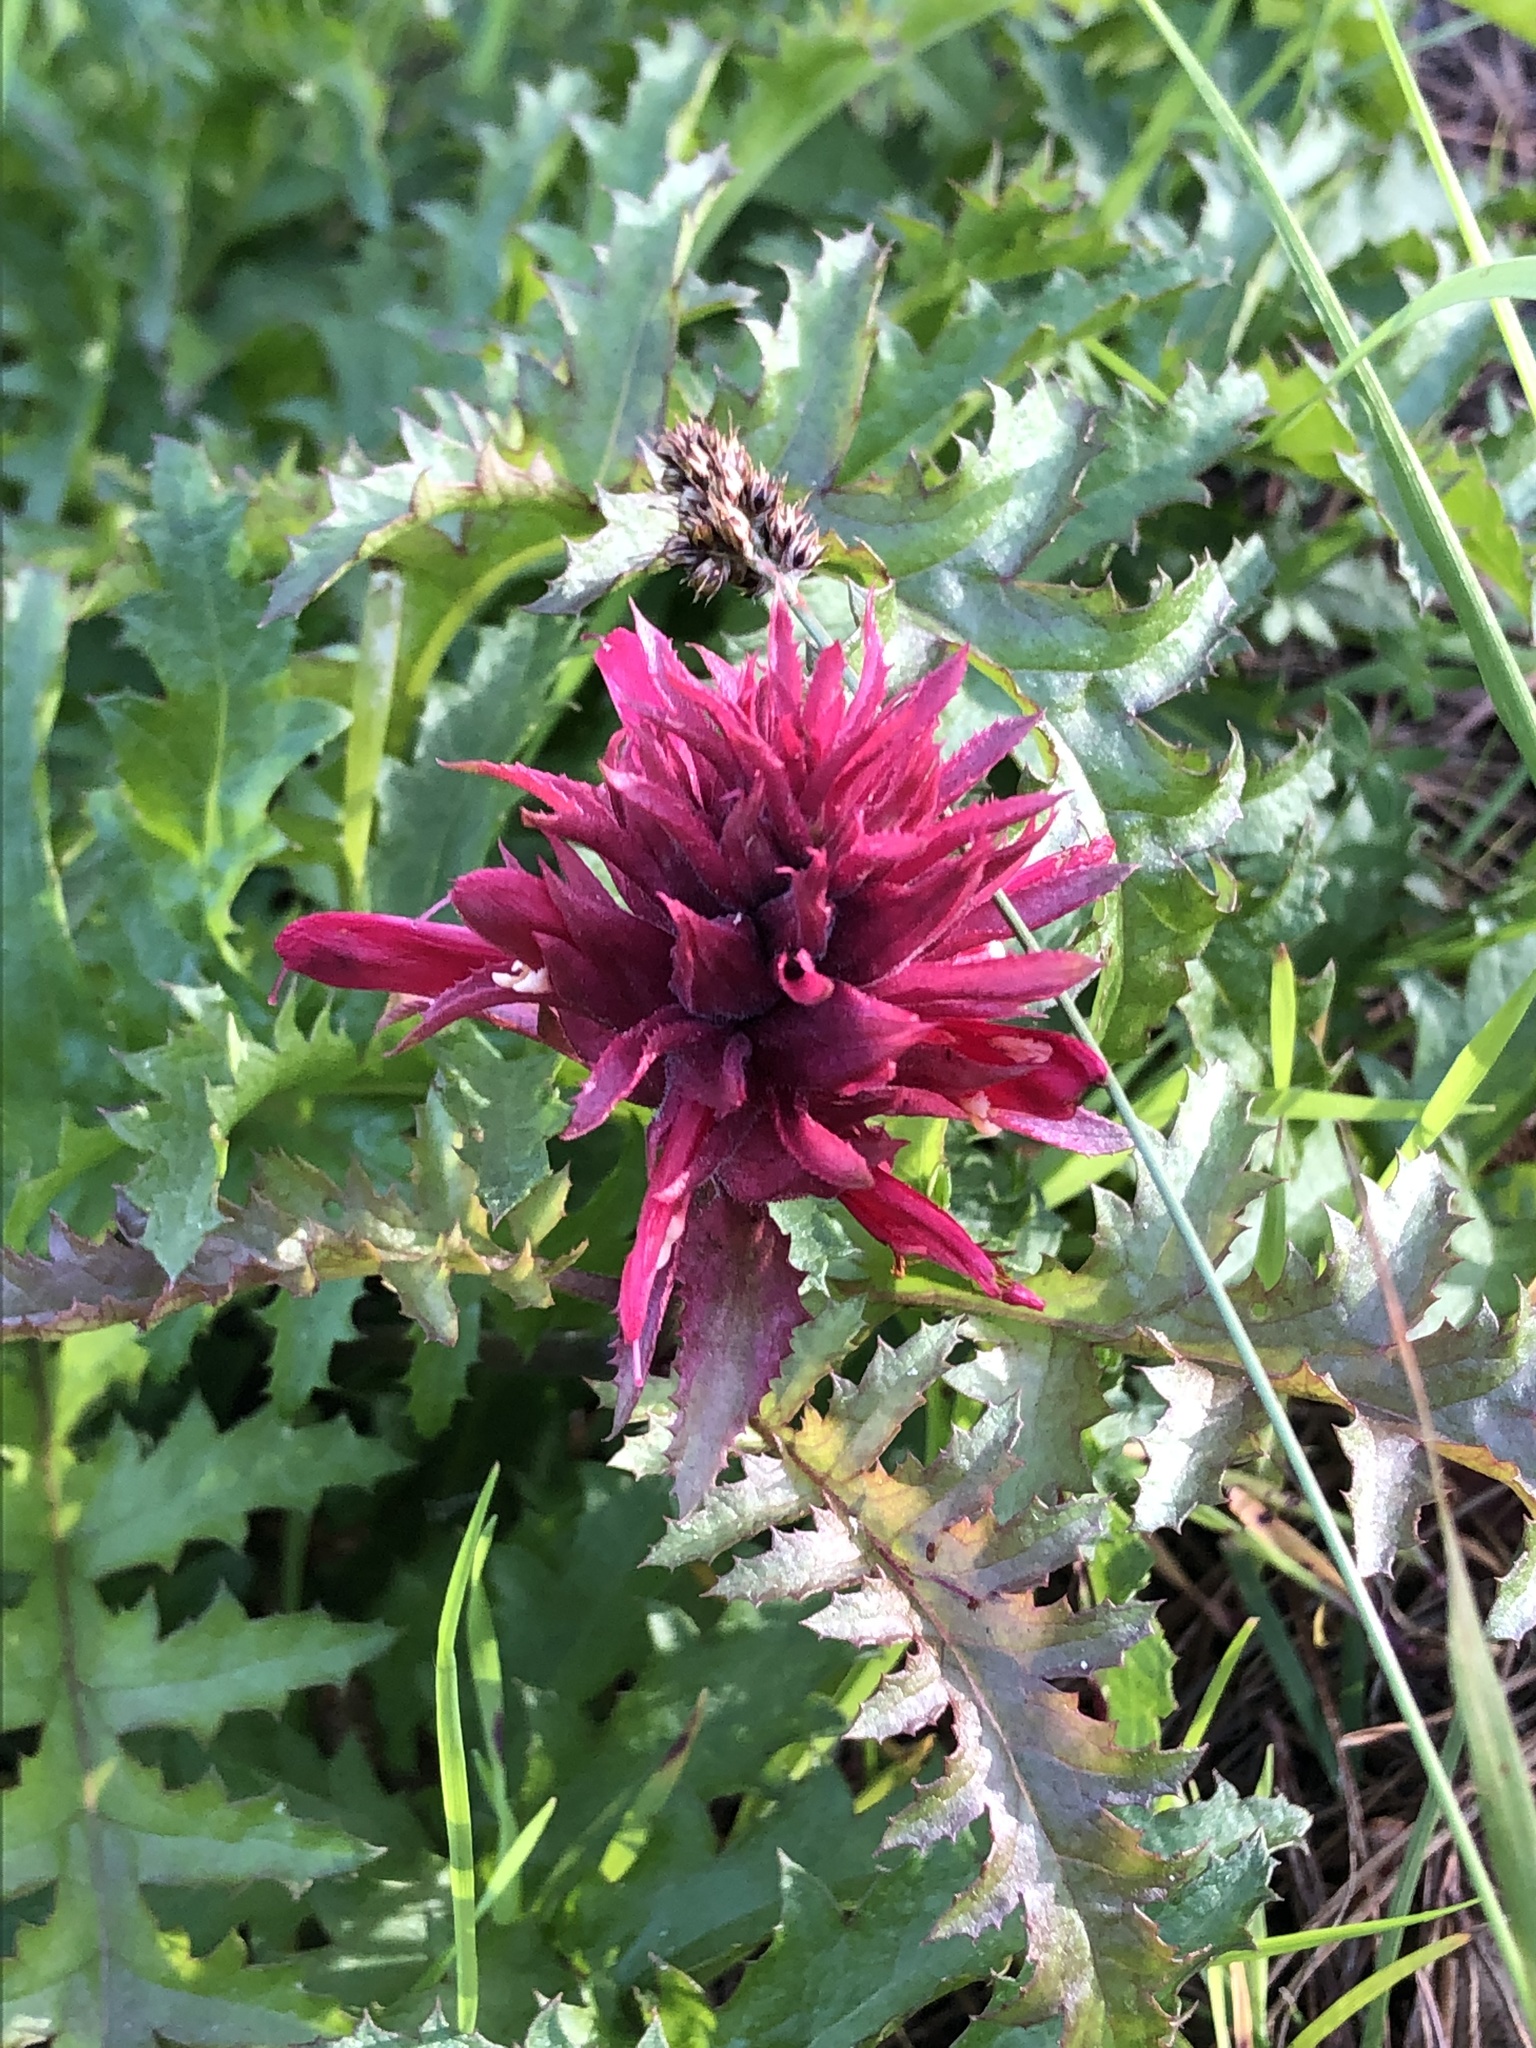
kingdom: Plantae
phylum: Tracheophyta
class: Magnoliopsida
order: Lamiales
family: Orobanchaceae
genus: Pedicularis
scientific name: Pedicularis densiflora
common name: Indian warrior
